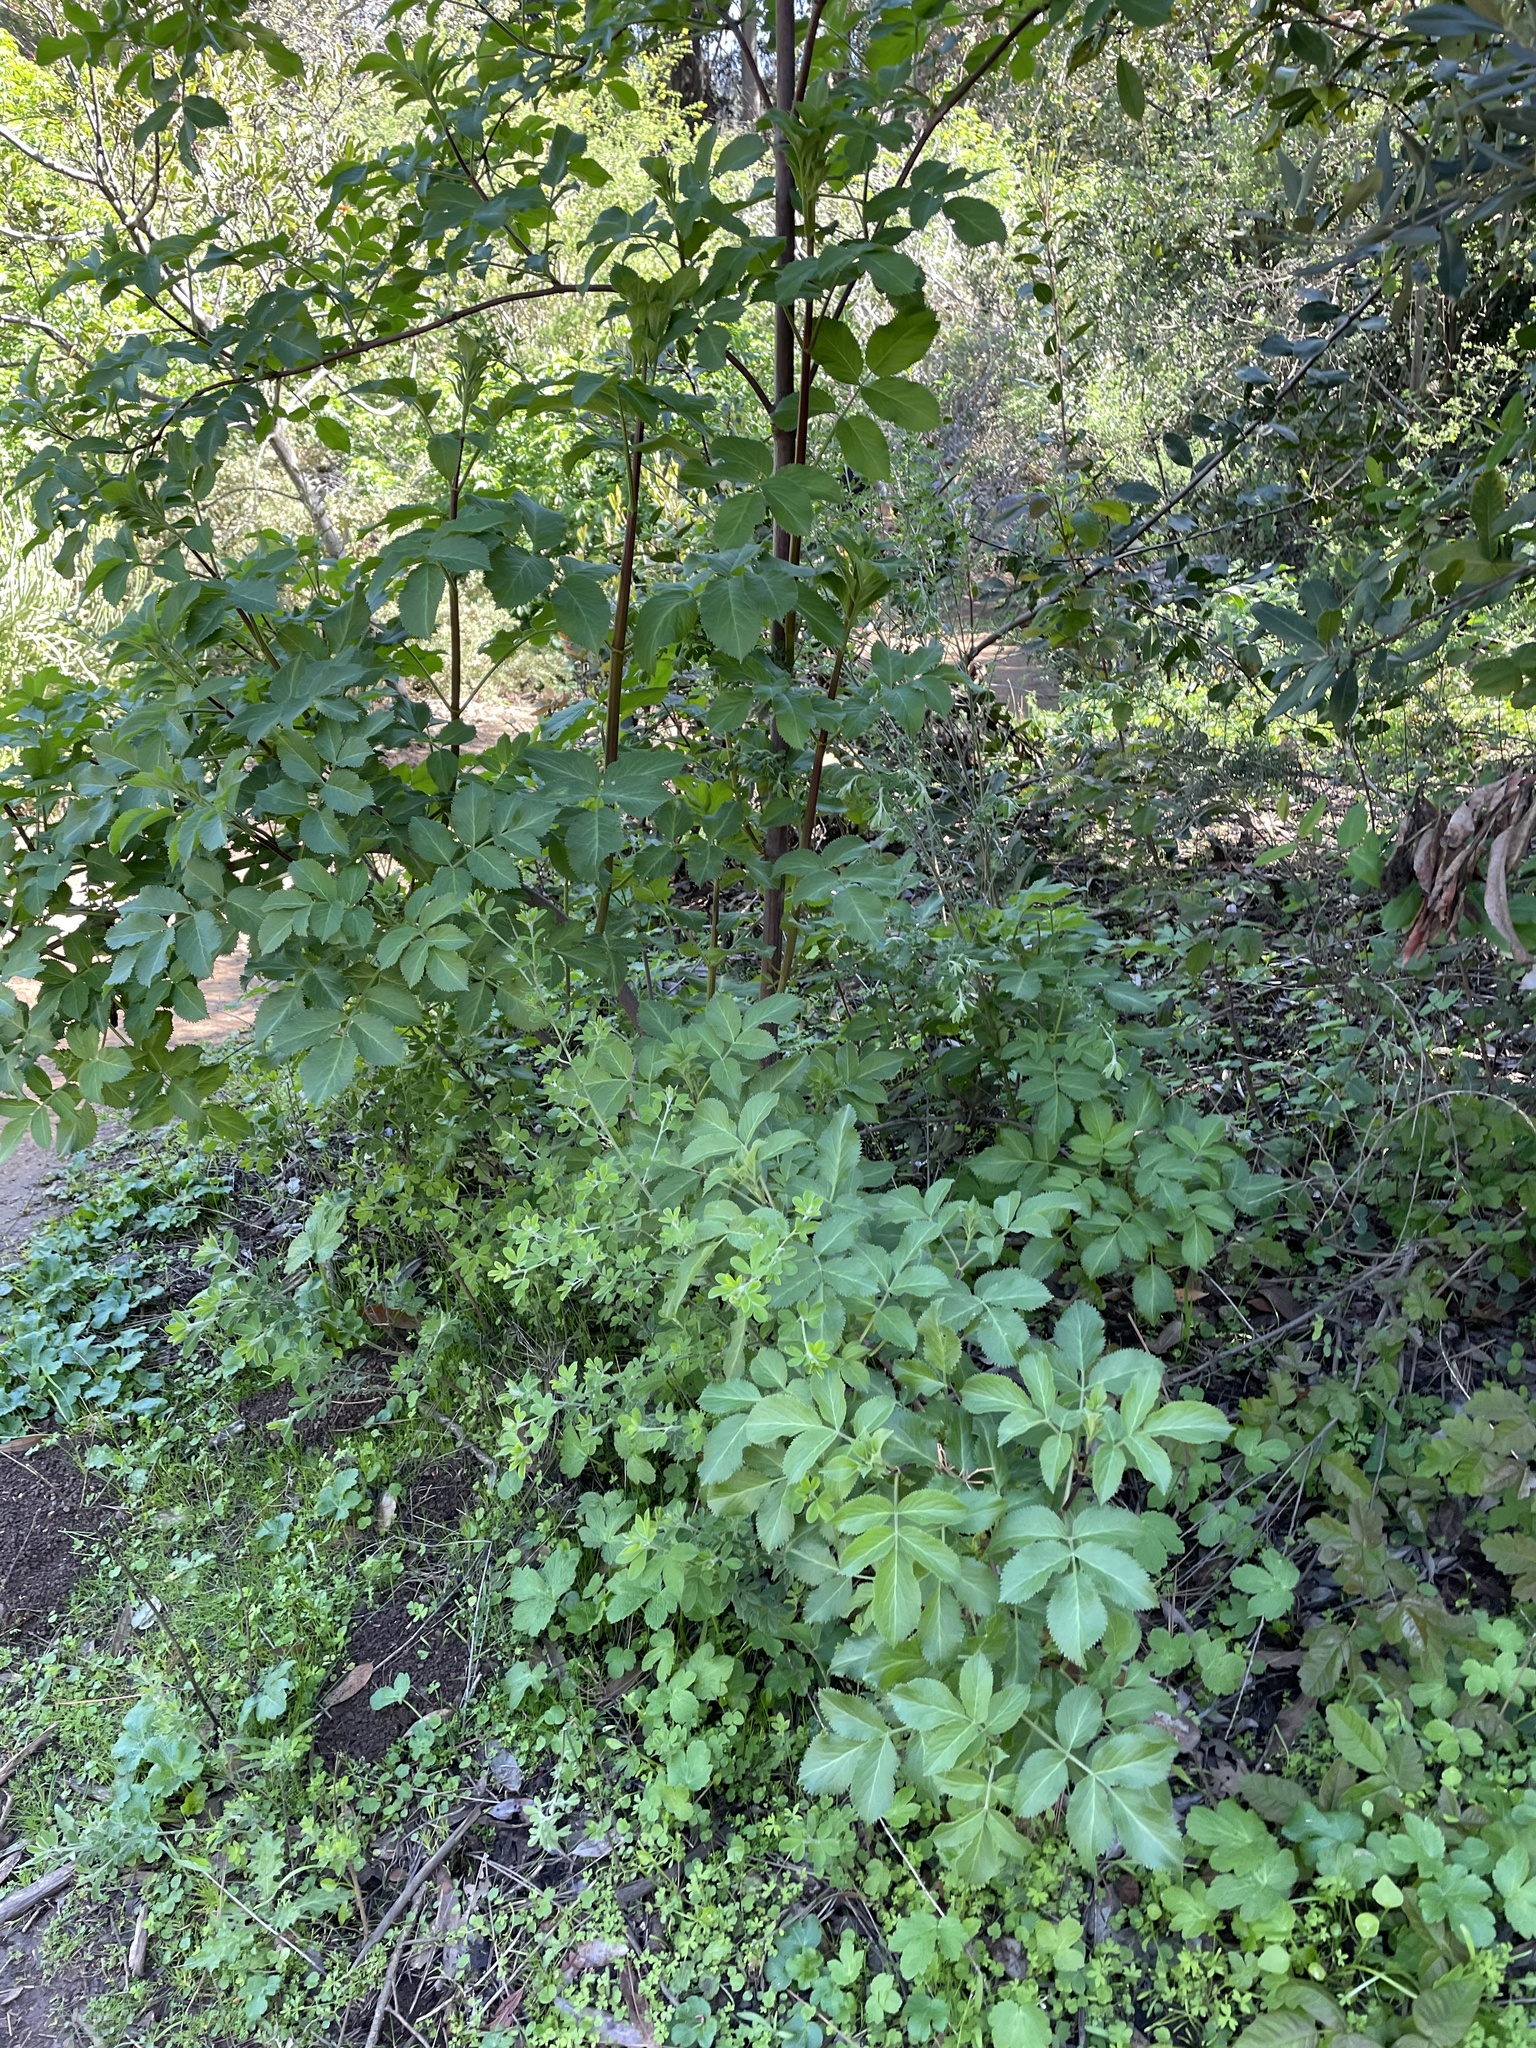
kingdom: Plantae
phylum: Tracheophyta
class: Magnoliopsida
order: Dipsacales
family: Viburnaceae
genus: Sambucus
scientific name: Sambucus cerulea
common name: Blue elder
